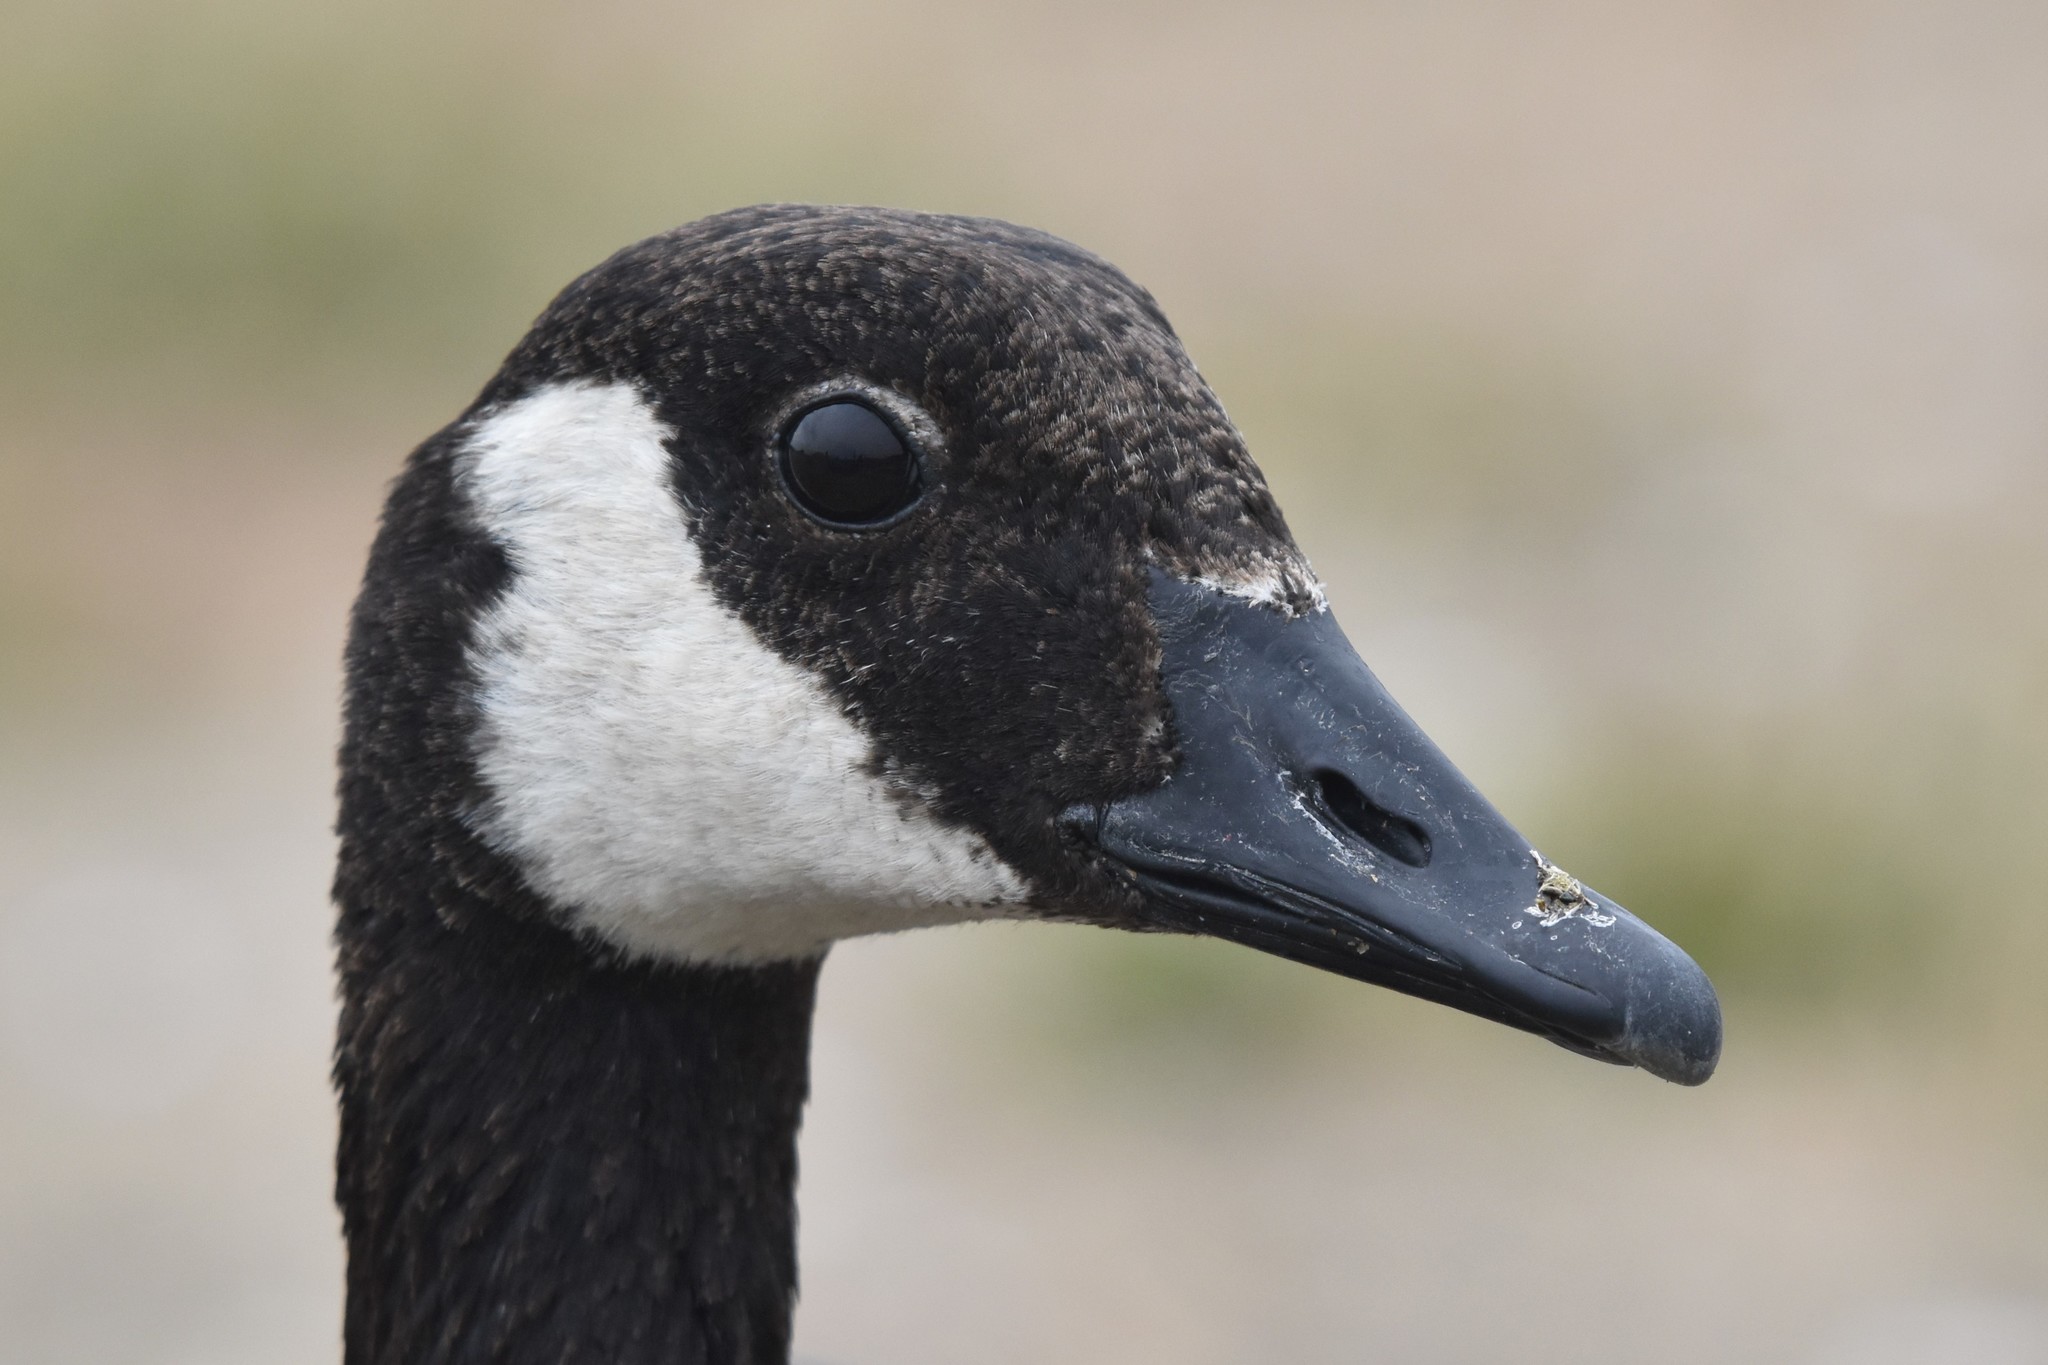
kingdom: Animalia
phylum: Chordata
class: Aves
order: Anseriformes
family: Anatidae
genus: Branta
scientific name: Branta canadensis
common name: Canada goose
